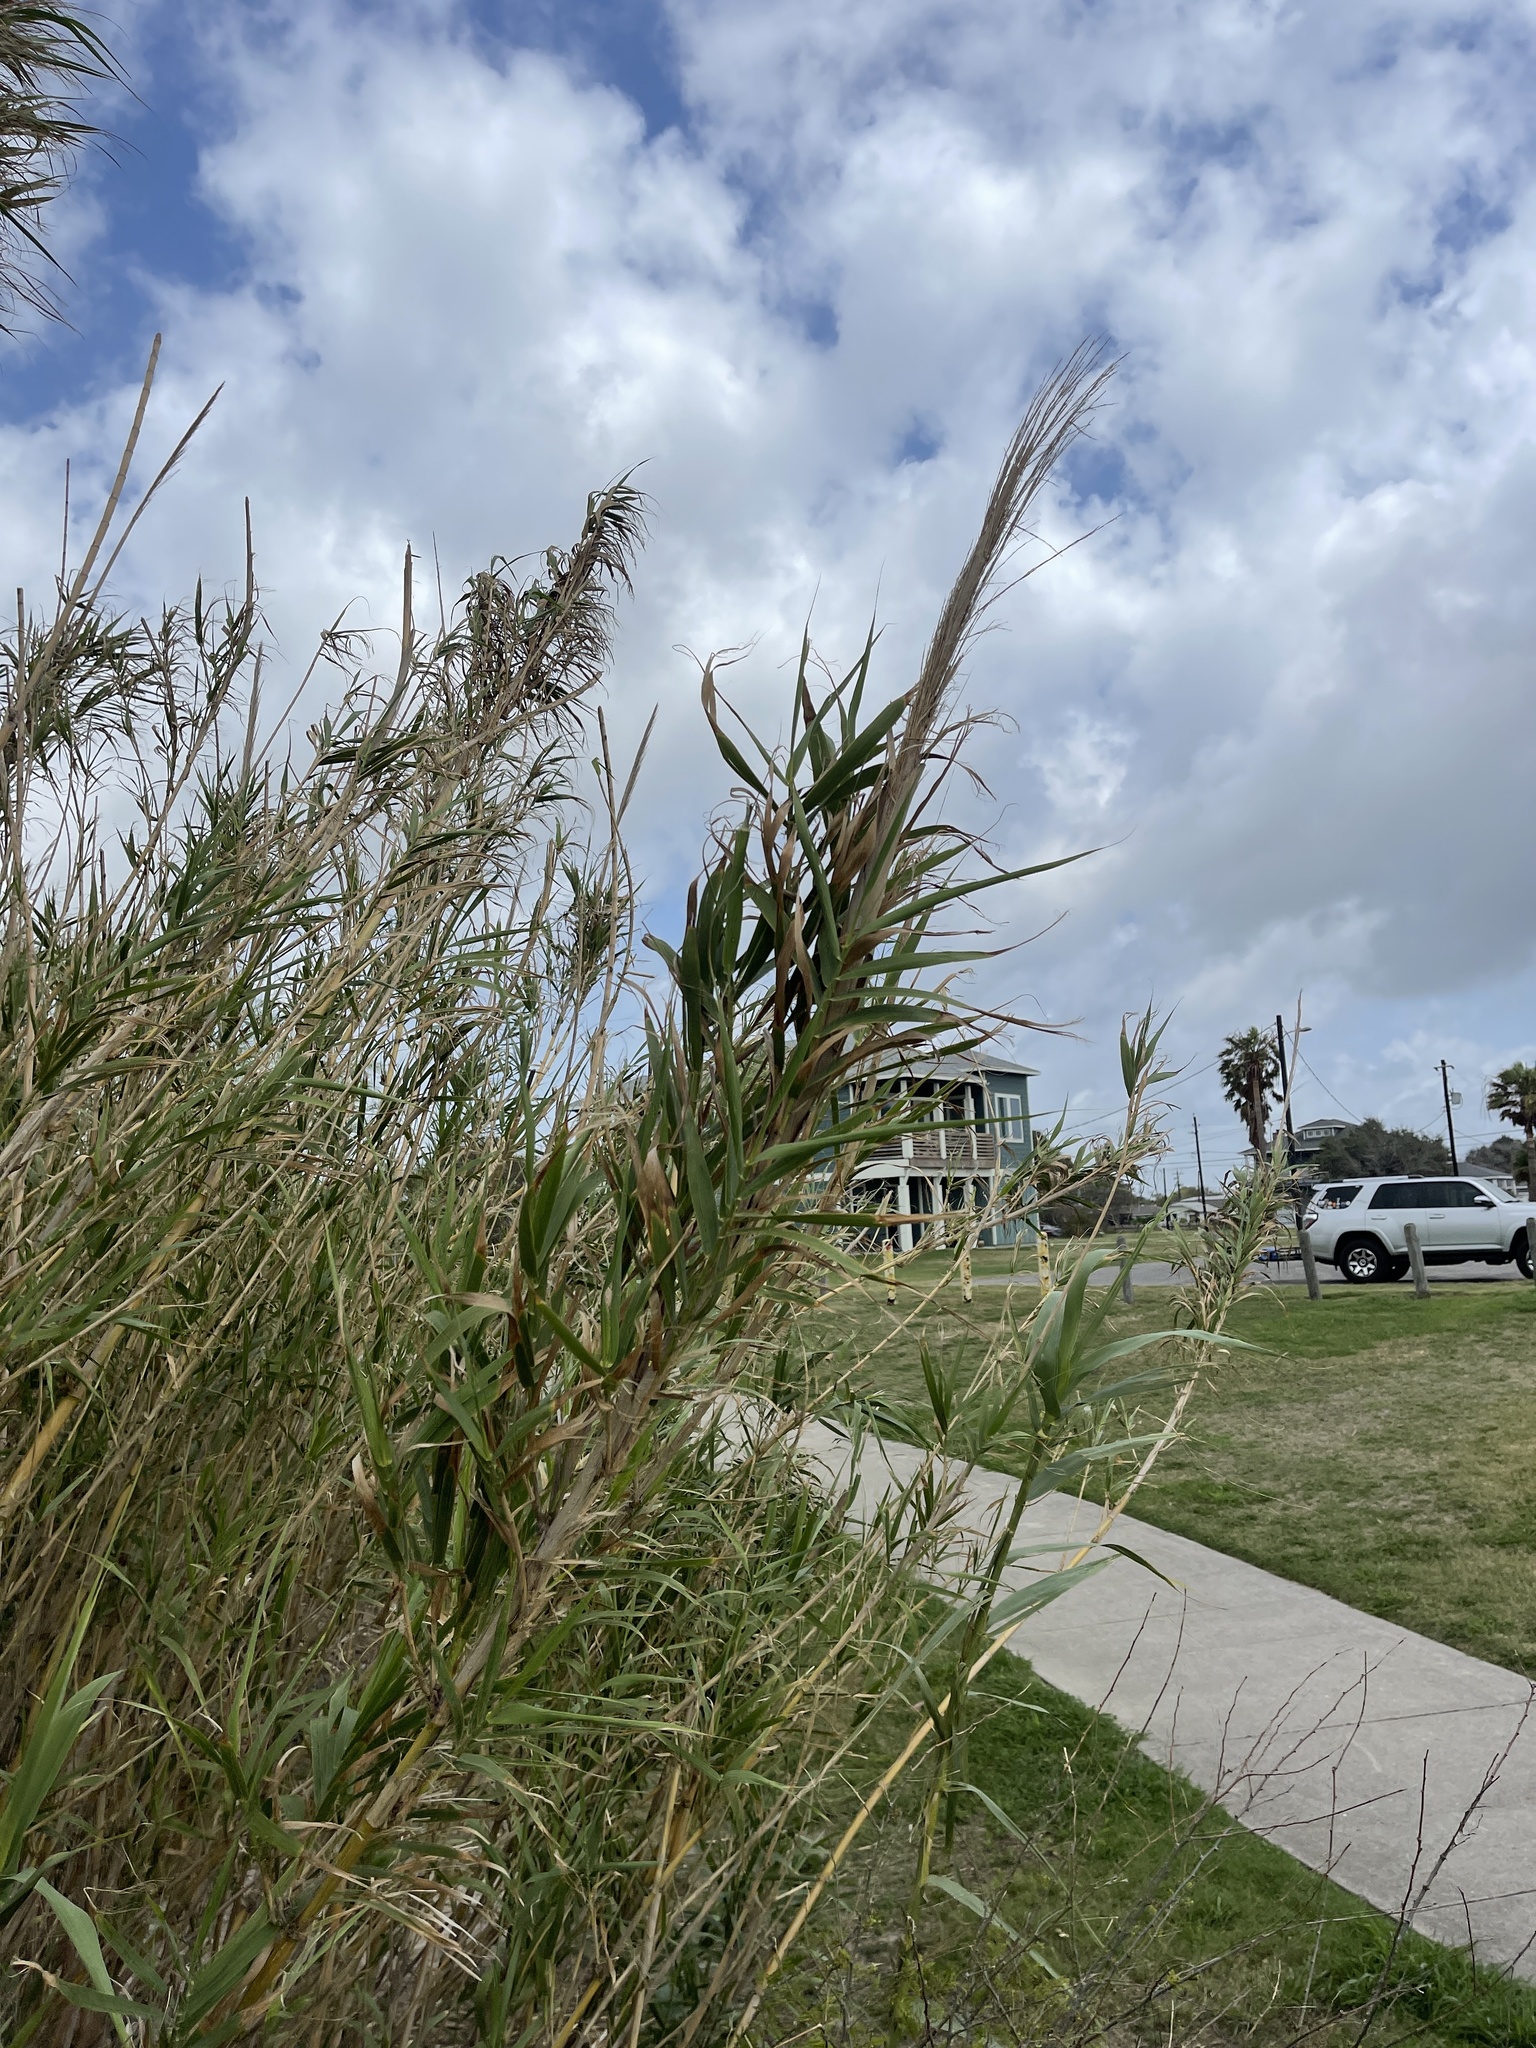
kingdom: Plantae
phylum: Tracheophyta
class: Liliopsida
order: Poales
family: Poaceae
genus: Arundo
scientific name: Arundo donax
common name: Giant reed
